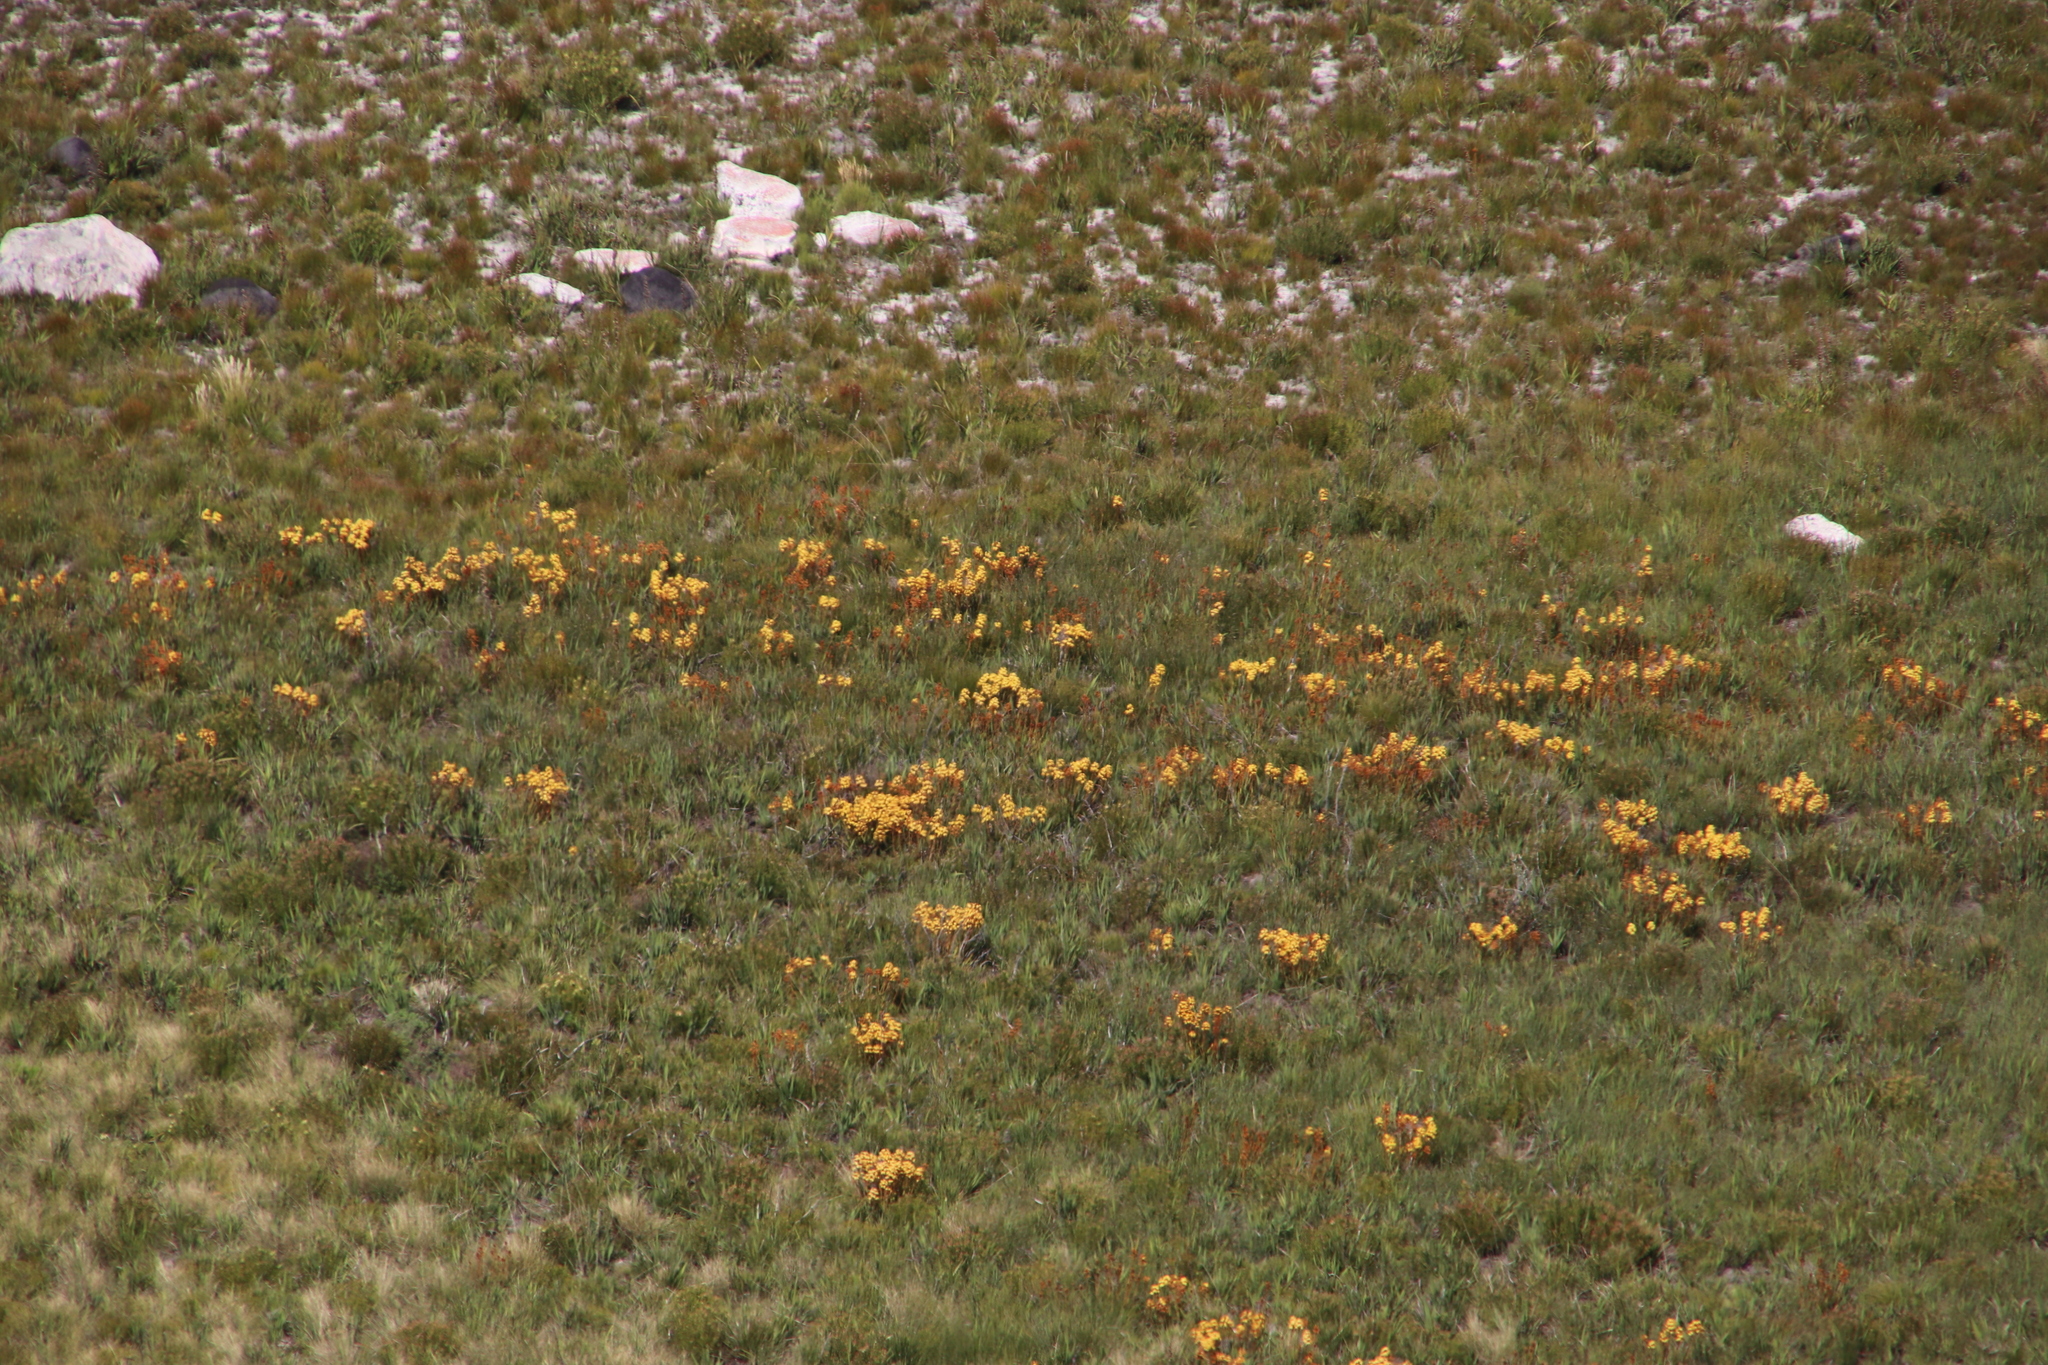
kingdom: Plantae
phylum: Tracheophyta
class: Liliopsida
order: Commelinales
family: Haemodoraceae
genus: Dilatris
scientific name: Dilatris viscosa
